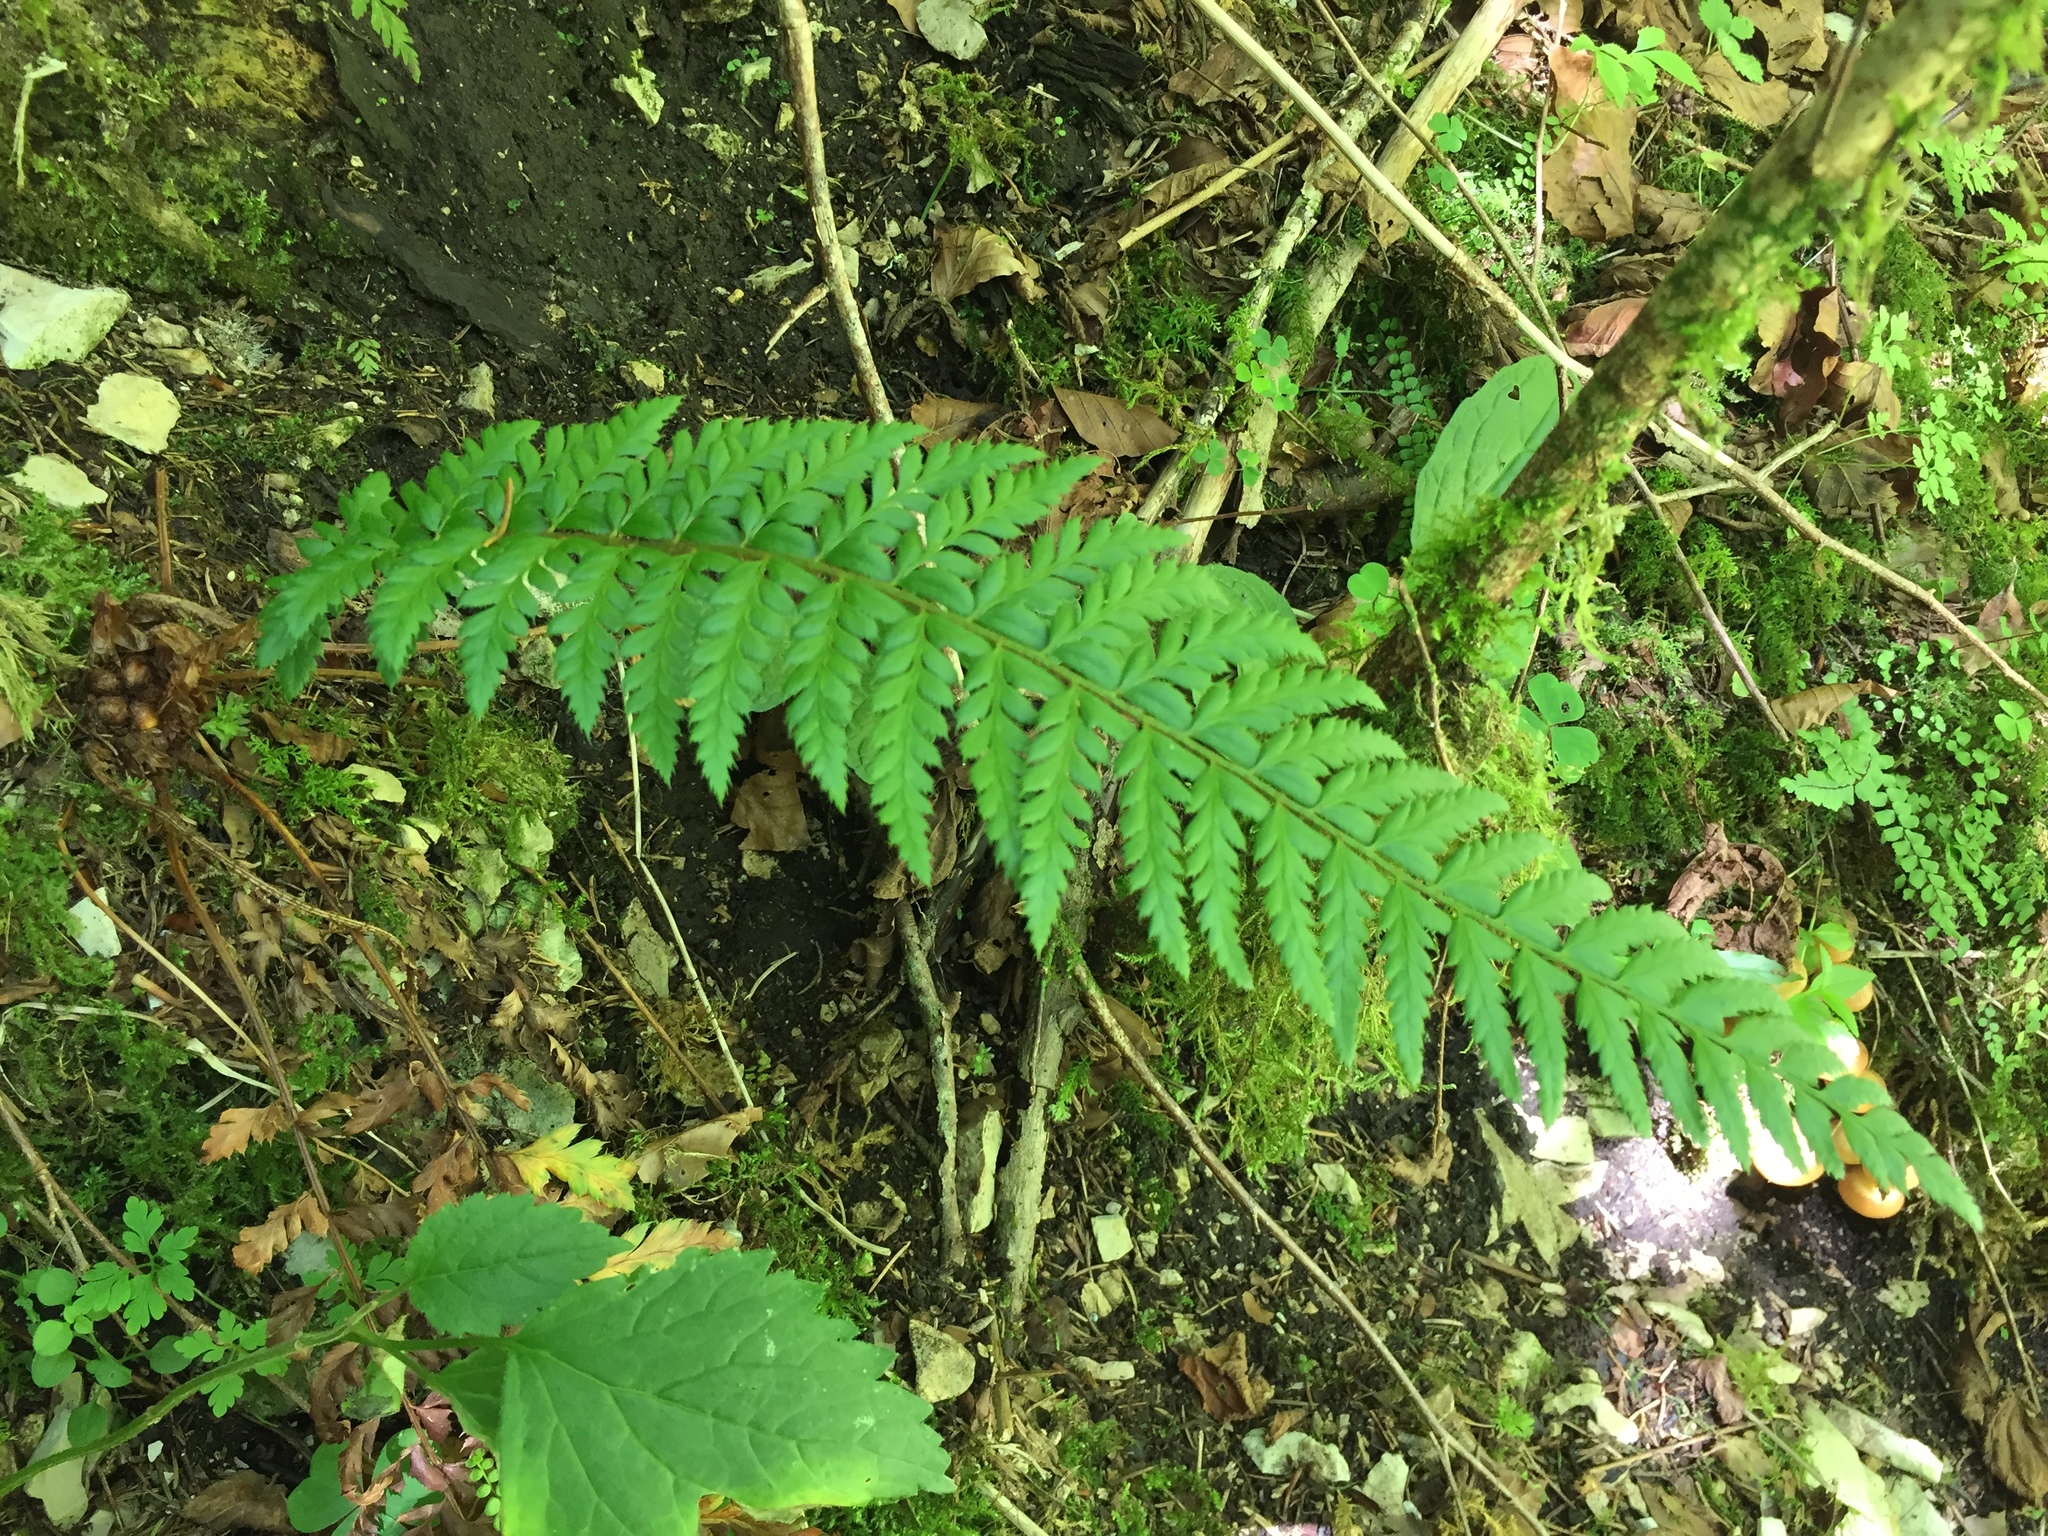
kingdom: Plantae
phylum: Tracheophyta
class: Polypodiopsida
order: Polypodiales
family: Dryopteridaceae
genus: Polystichum
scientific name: Polystichum aculeatum
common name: Hard shield-fern
